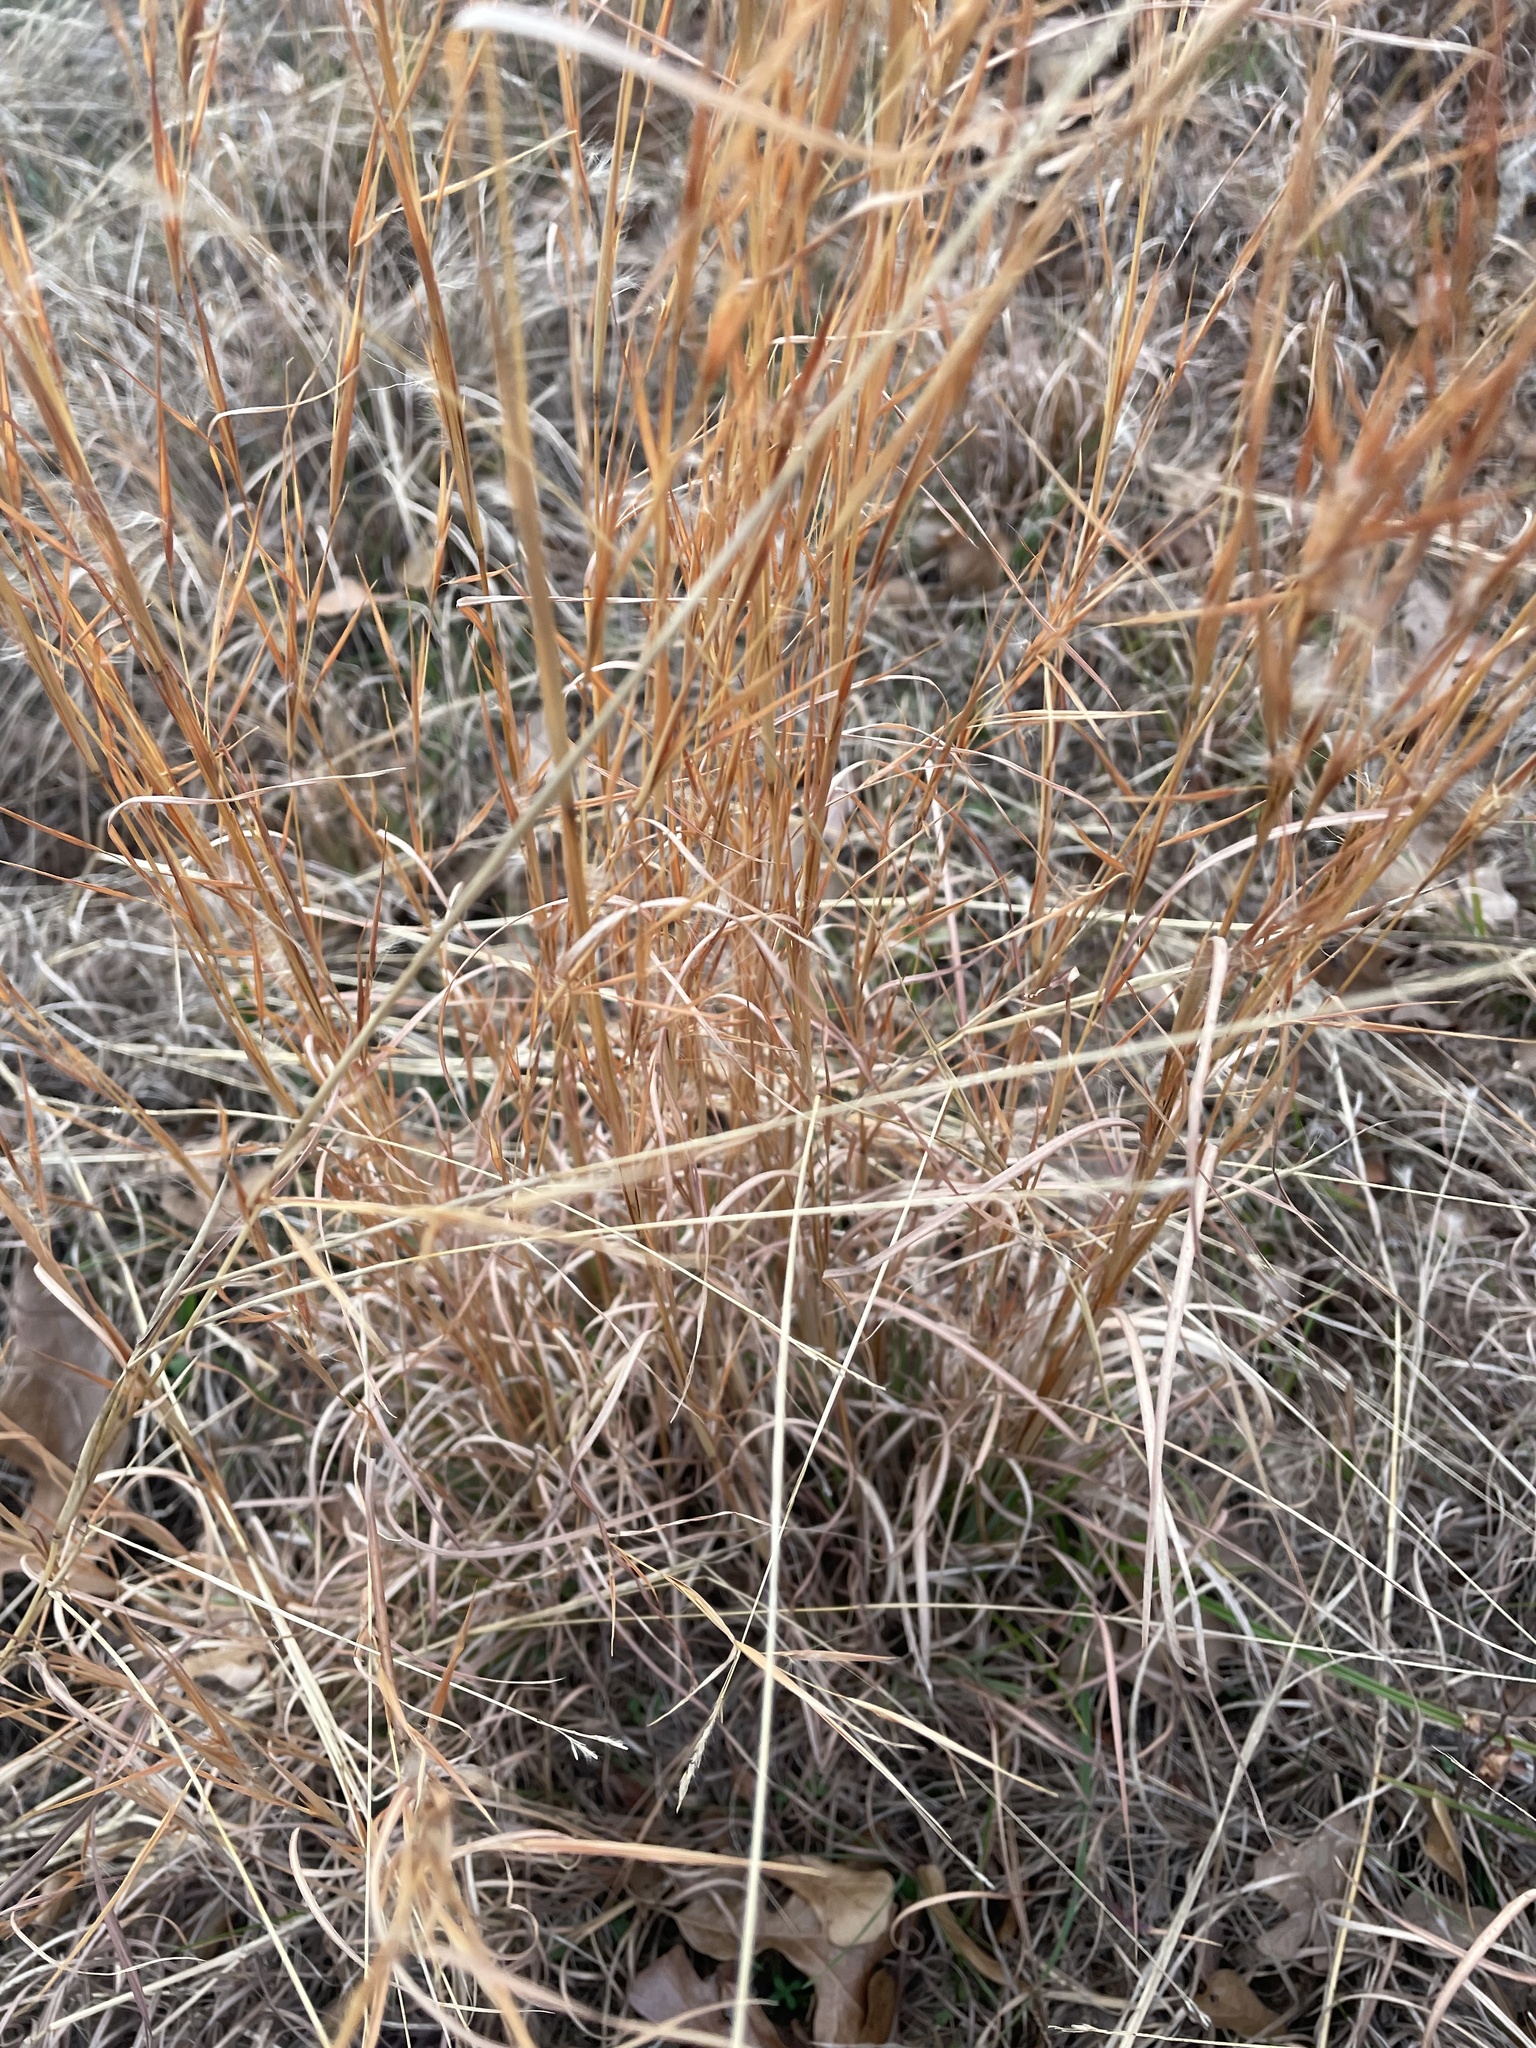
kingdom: Plantae
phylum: Tracheophyta
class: Liliopsida
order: Poales
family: Poaceae
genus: Andropogon
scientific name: Andropogon virginicus
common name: Broomsedge bluestem
